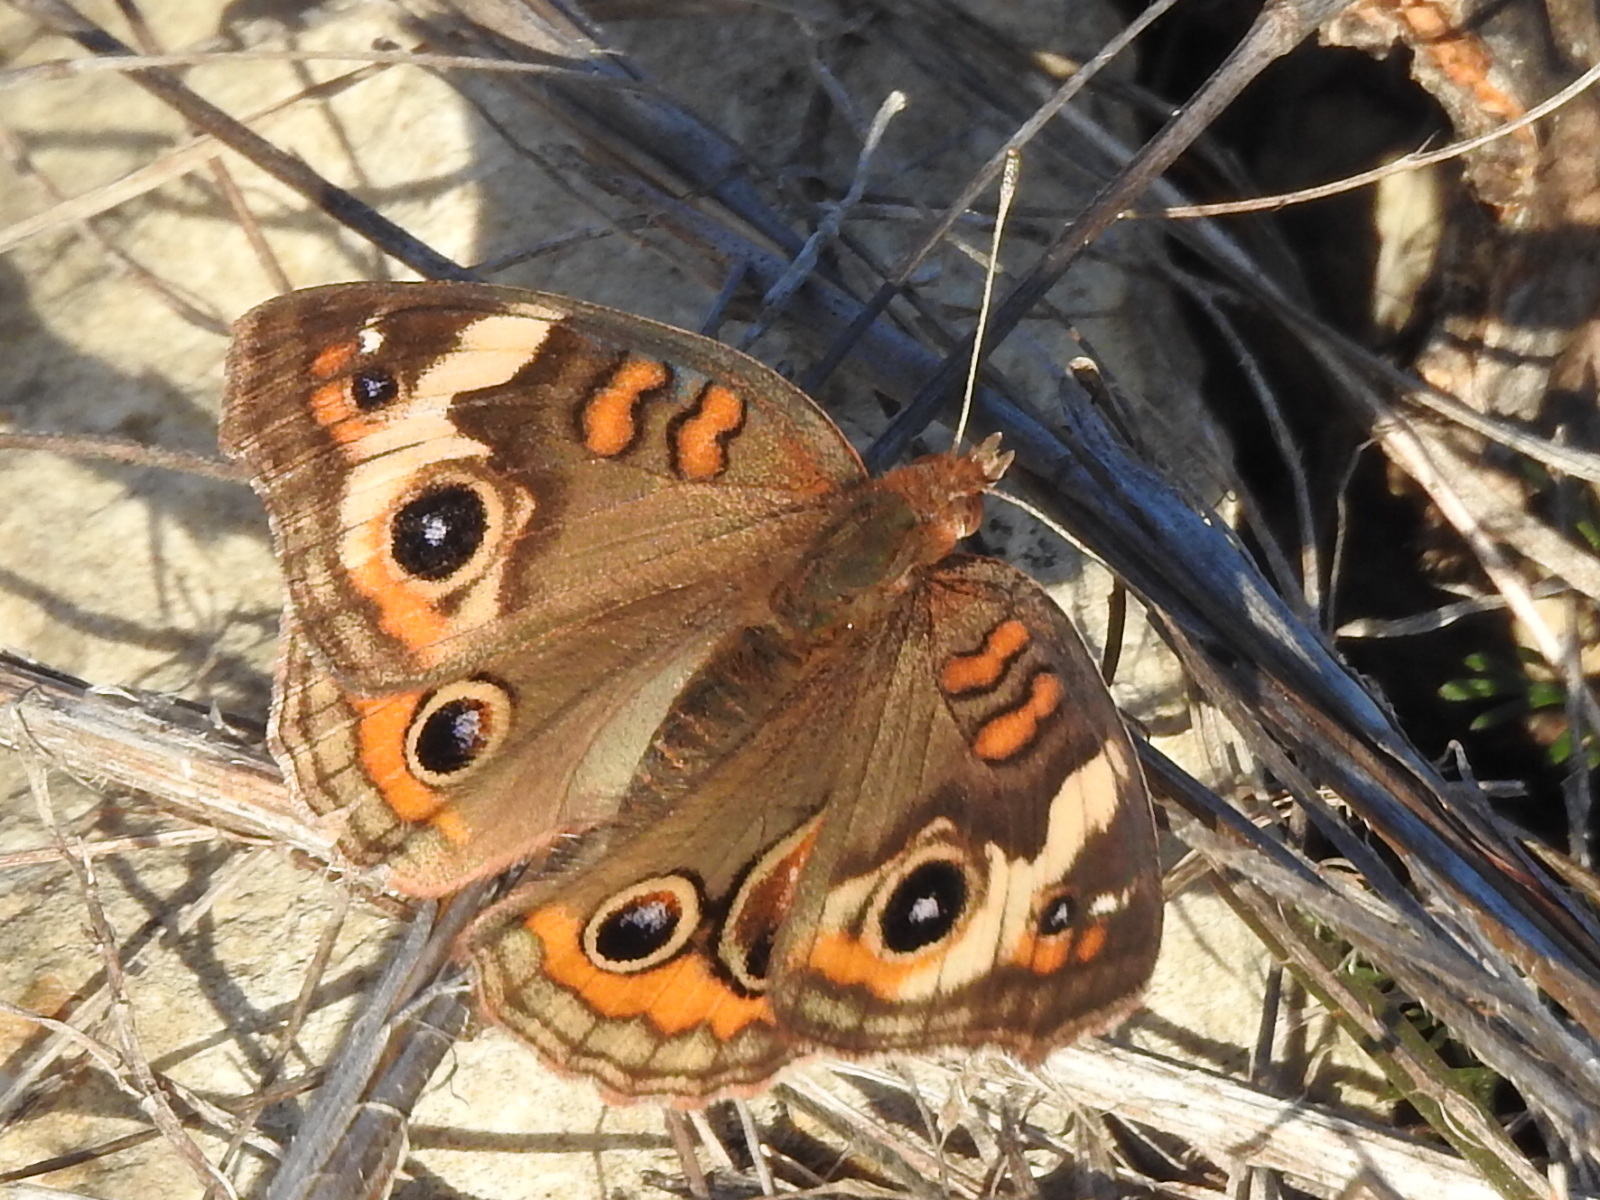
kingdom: Animalia
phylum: Arthropoda
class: Insecta
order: Lepidoptera
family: Nymphalidae
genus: Junonia
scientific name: Junonia coenia
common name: Common buckeye
